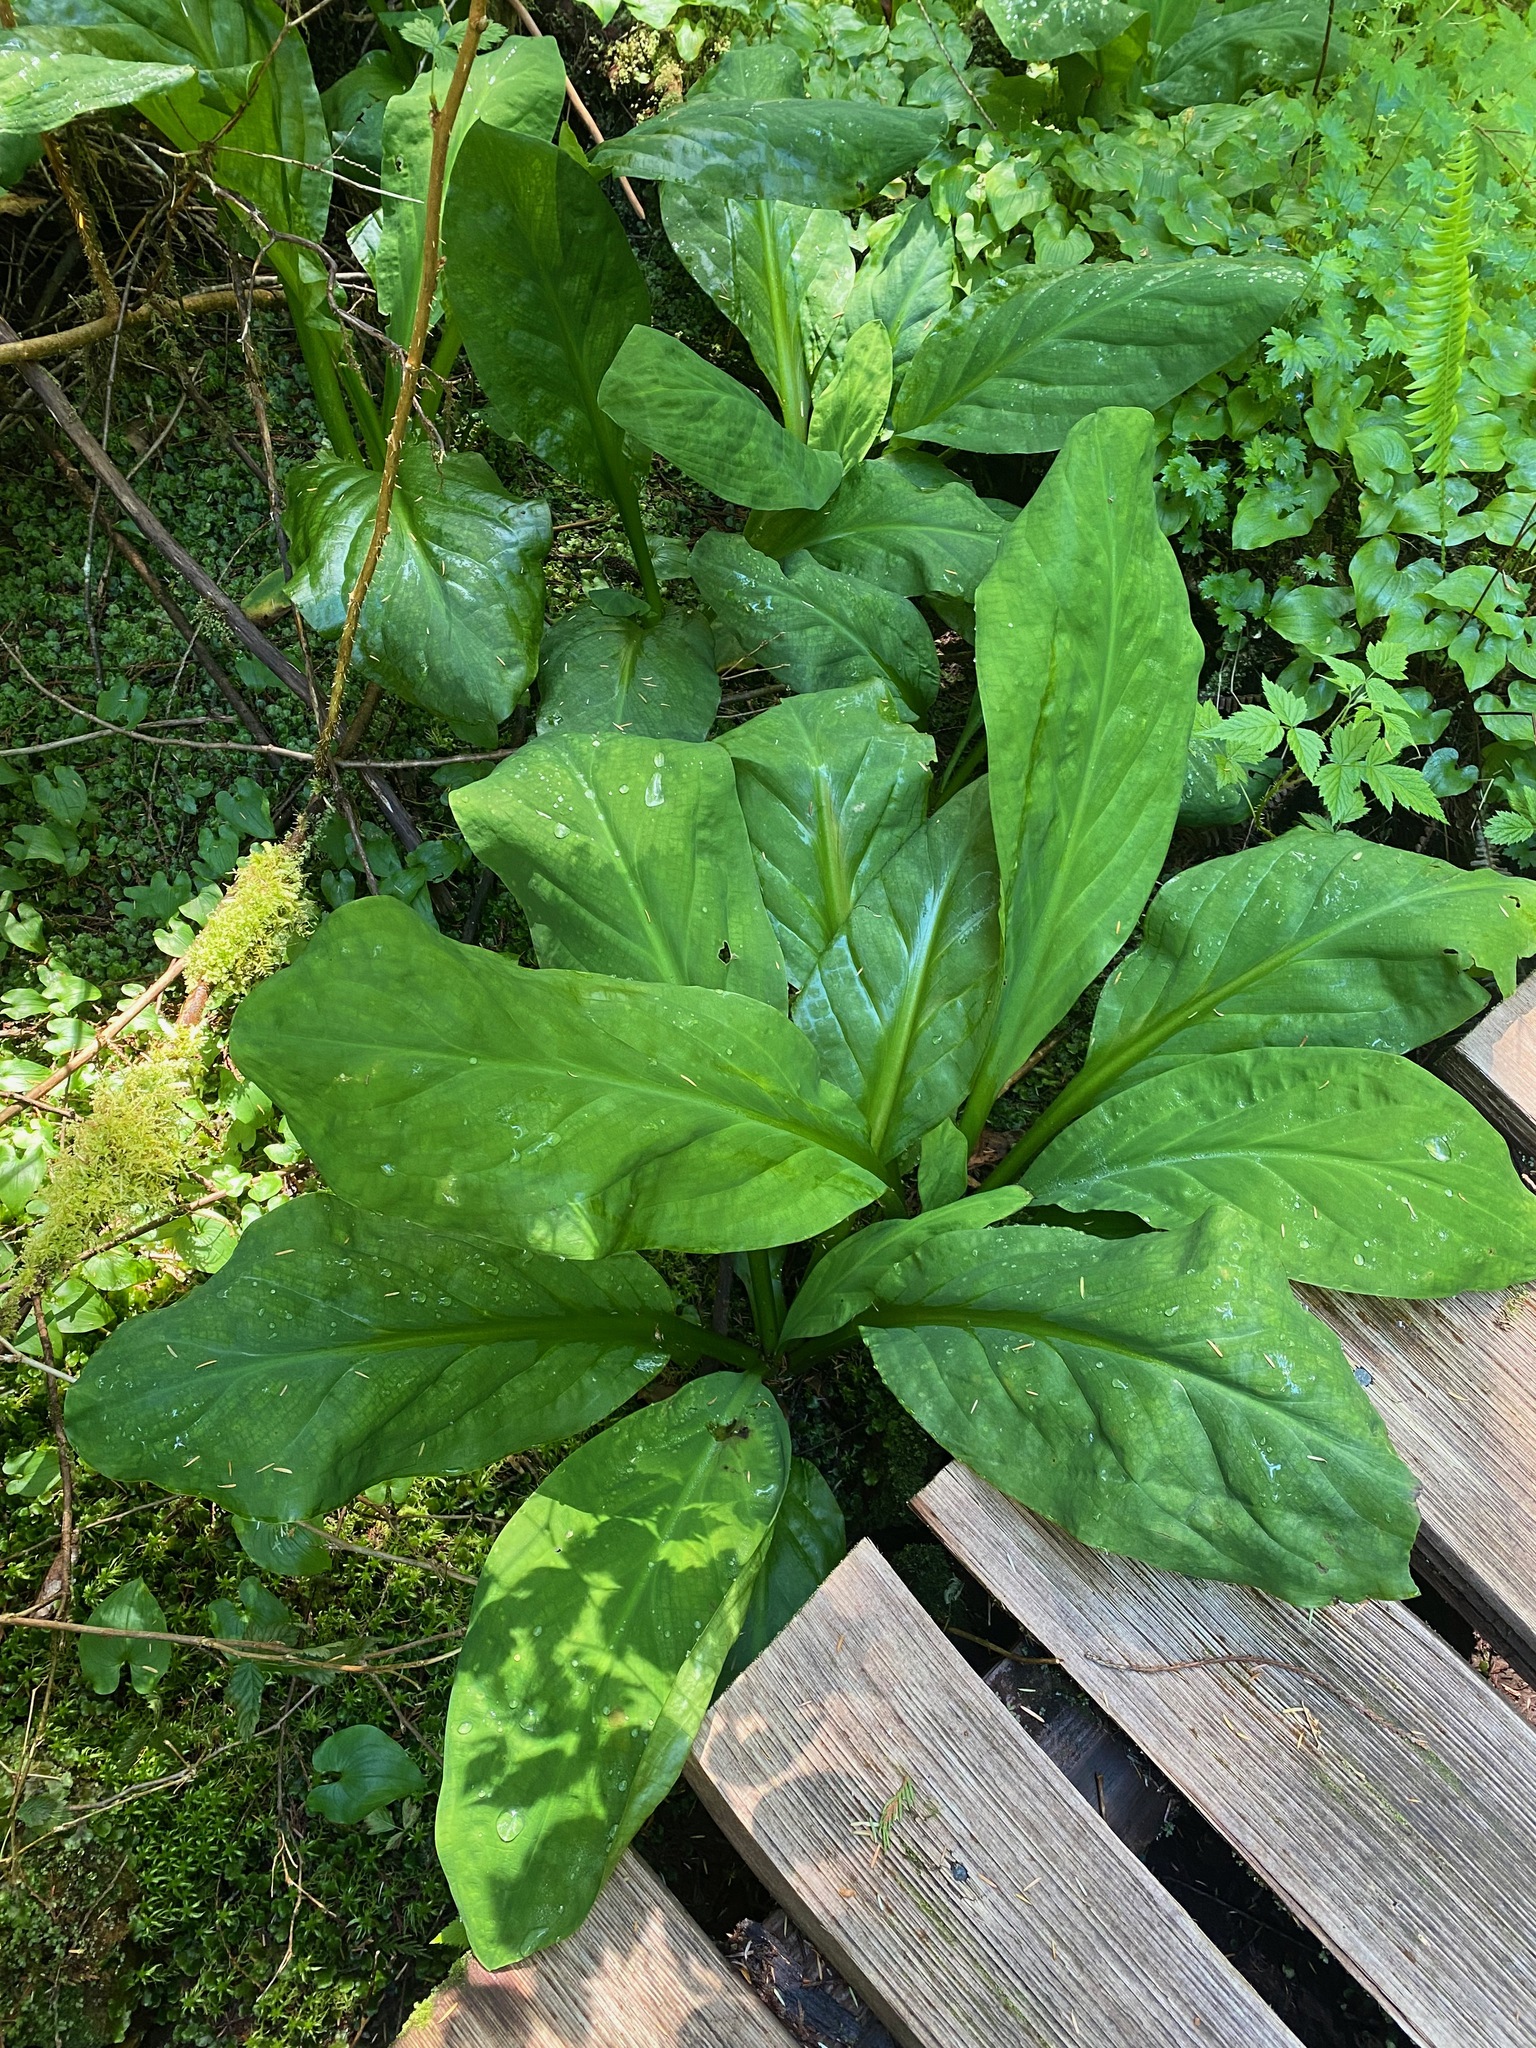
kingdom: Plantae
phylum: Tracheophyta
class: Liliopsida
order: Alismatales
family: Araceae
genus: Lysichiton
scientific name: Lysichiton americanus
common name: American skunk cabbage
